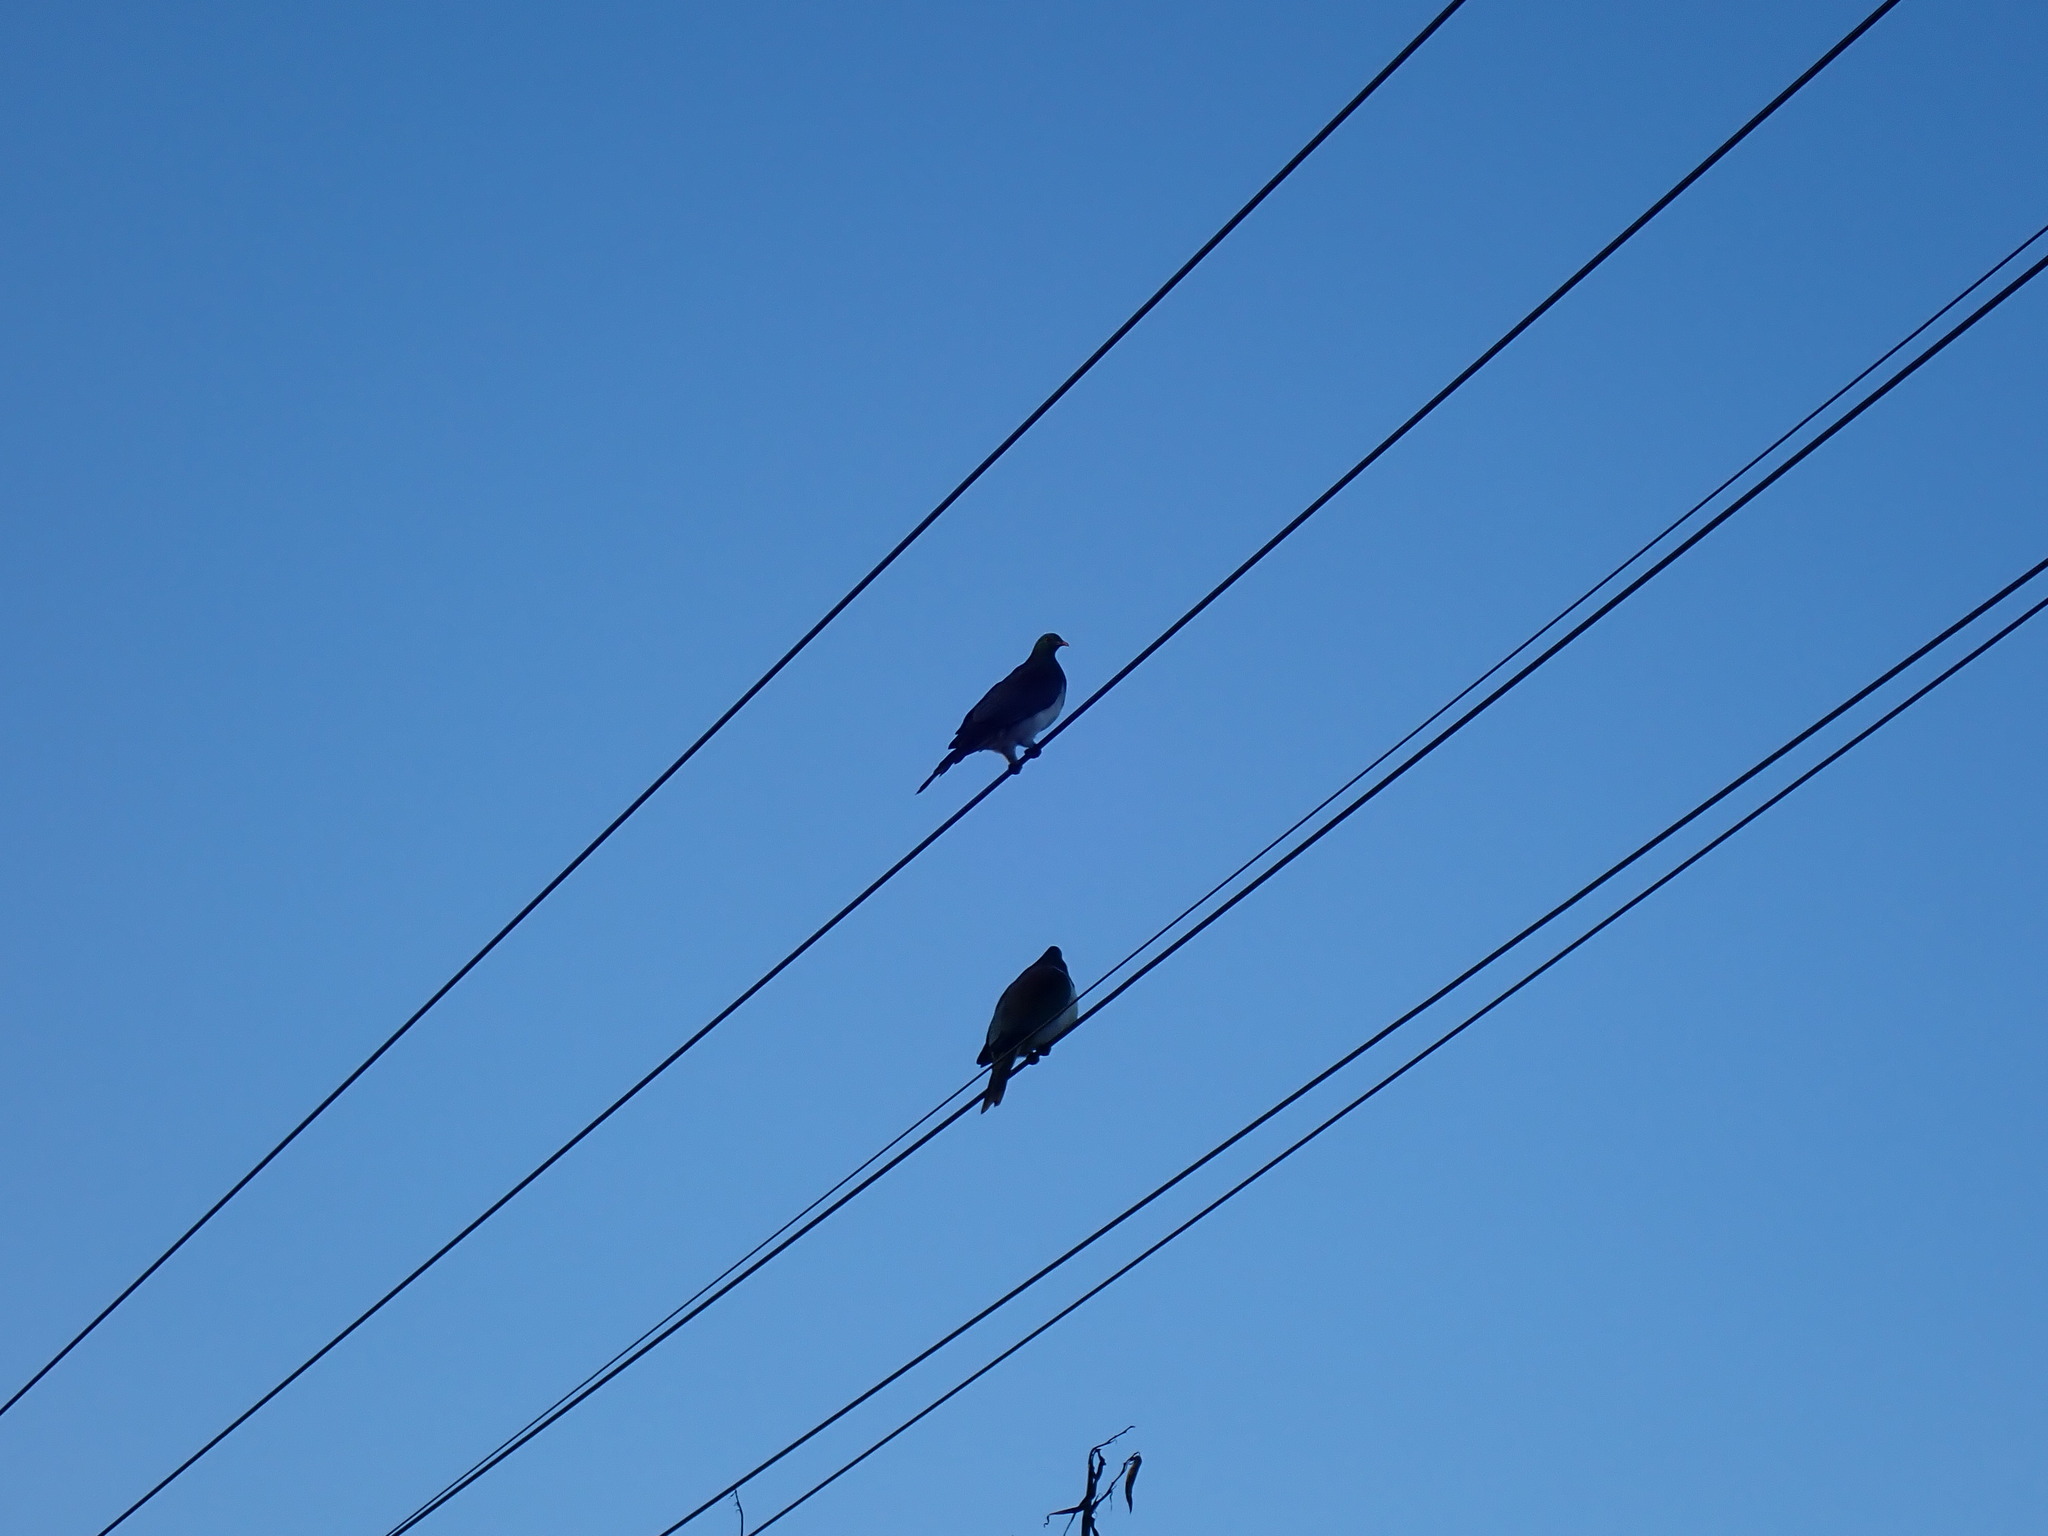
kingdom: Animalia
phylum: Chordata
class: Aves
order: Columbiformes
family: Columbidae
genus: Hemiphaga
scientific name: Hemiphaga novaeseelandiae
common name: New zealand pigeon
